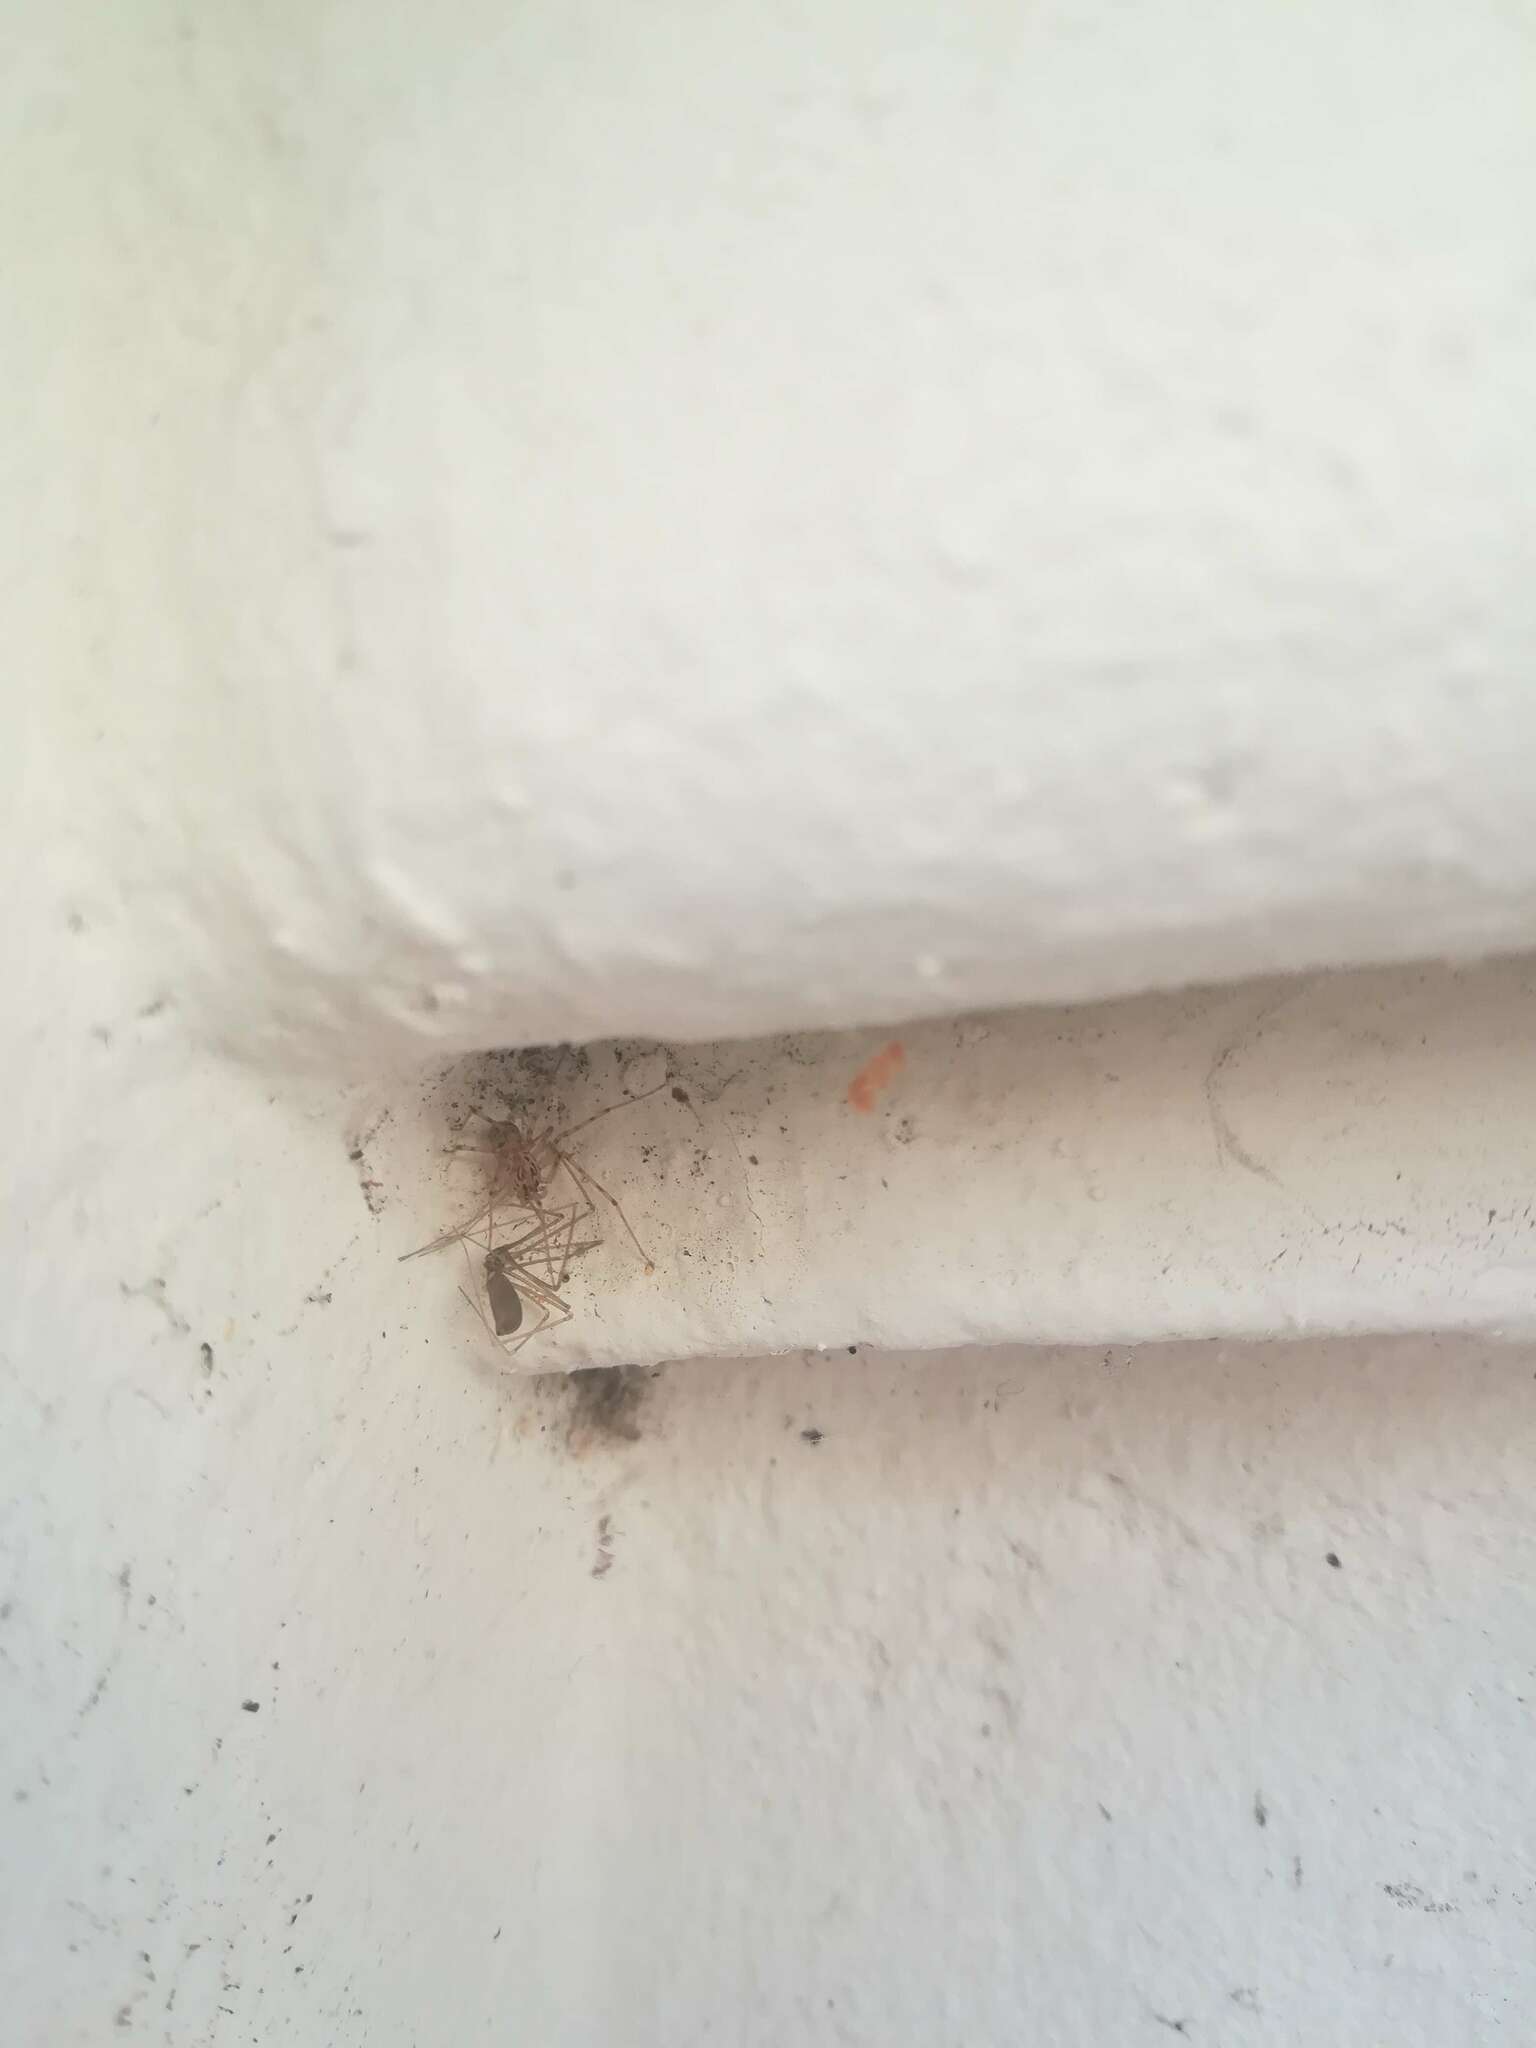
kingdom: Animalia
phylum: Arthropoda
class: Arachnida
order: Araneae
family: Scytodidae
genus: Scytodes
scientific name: Scytodes thoracica
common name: Spitting spider
